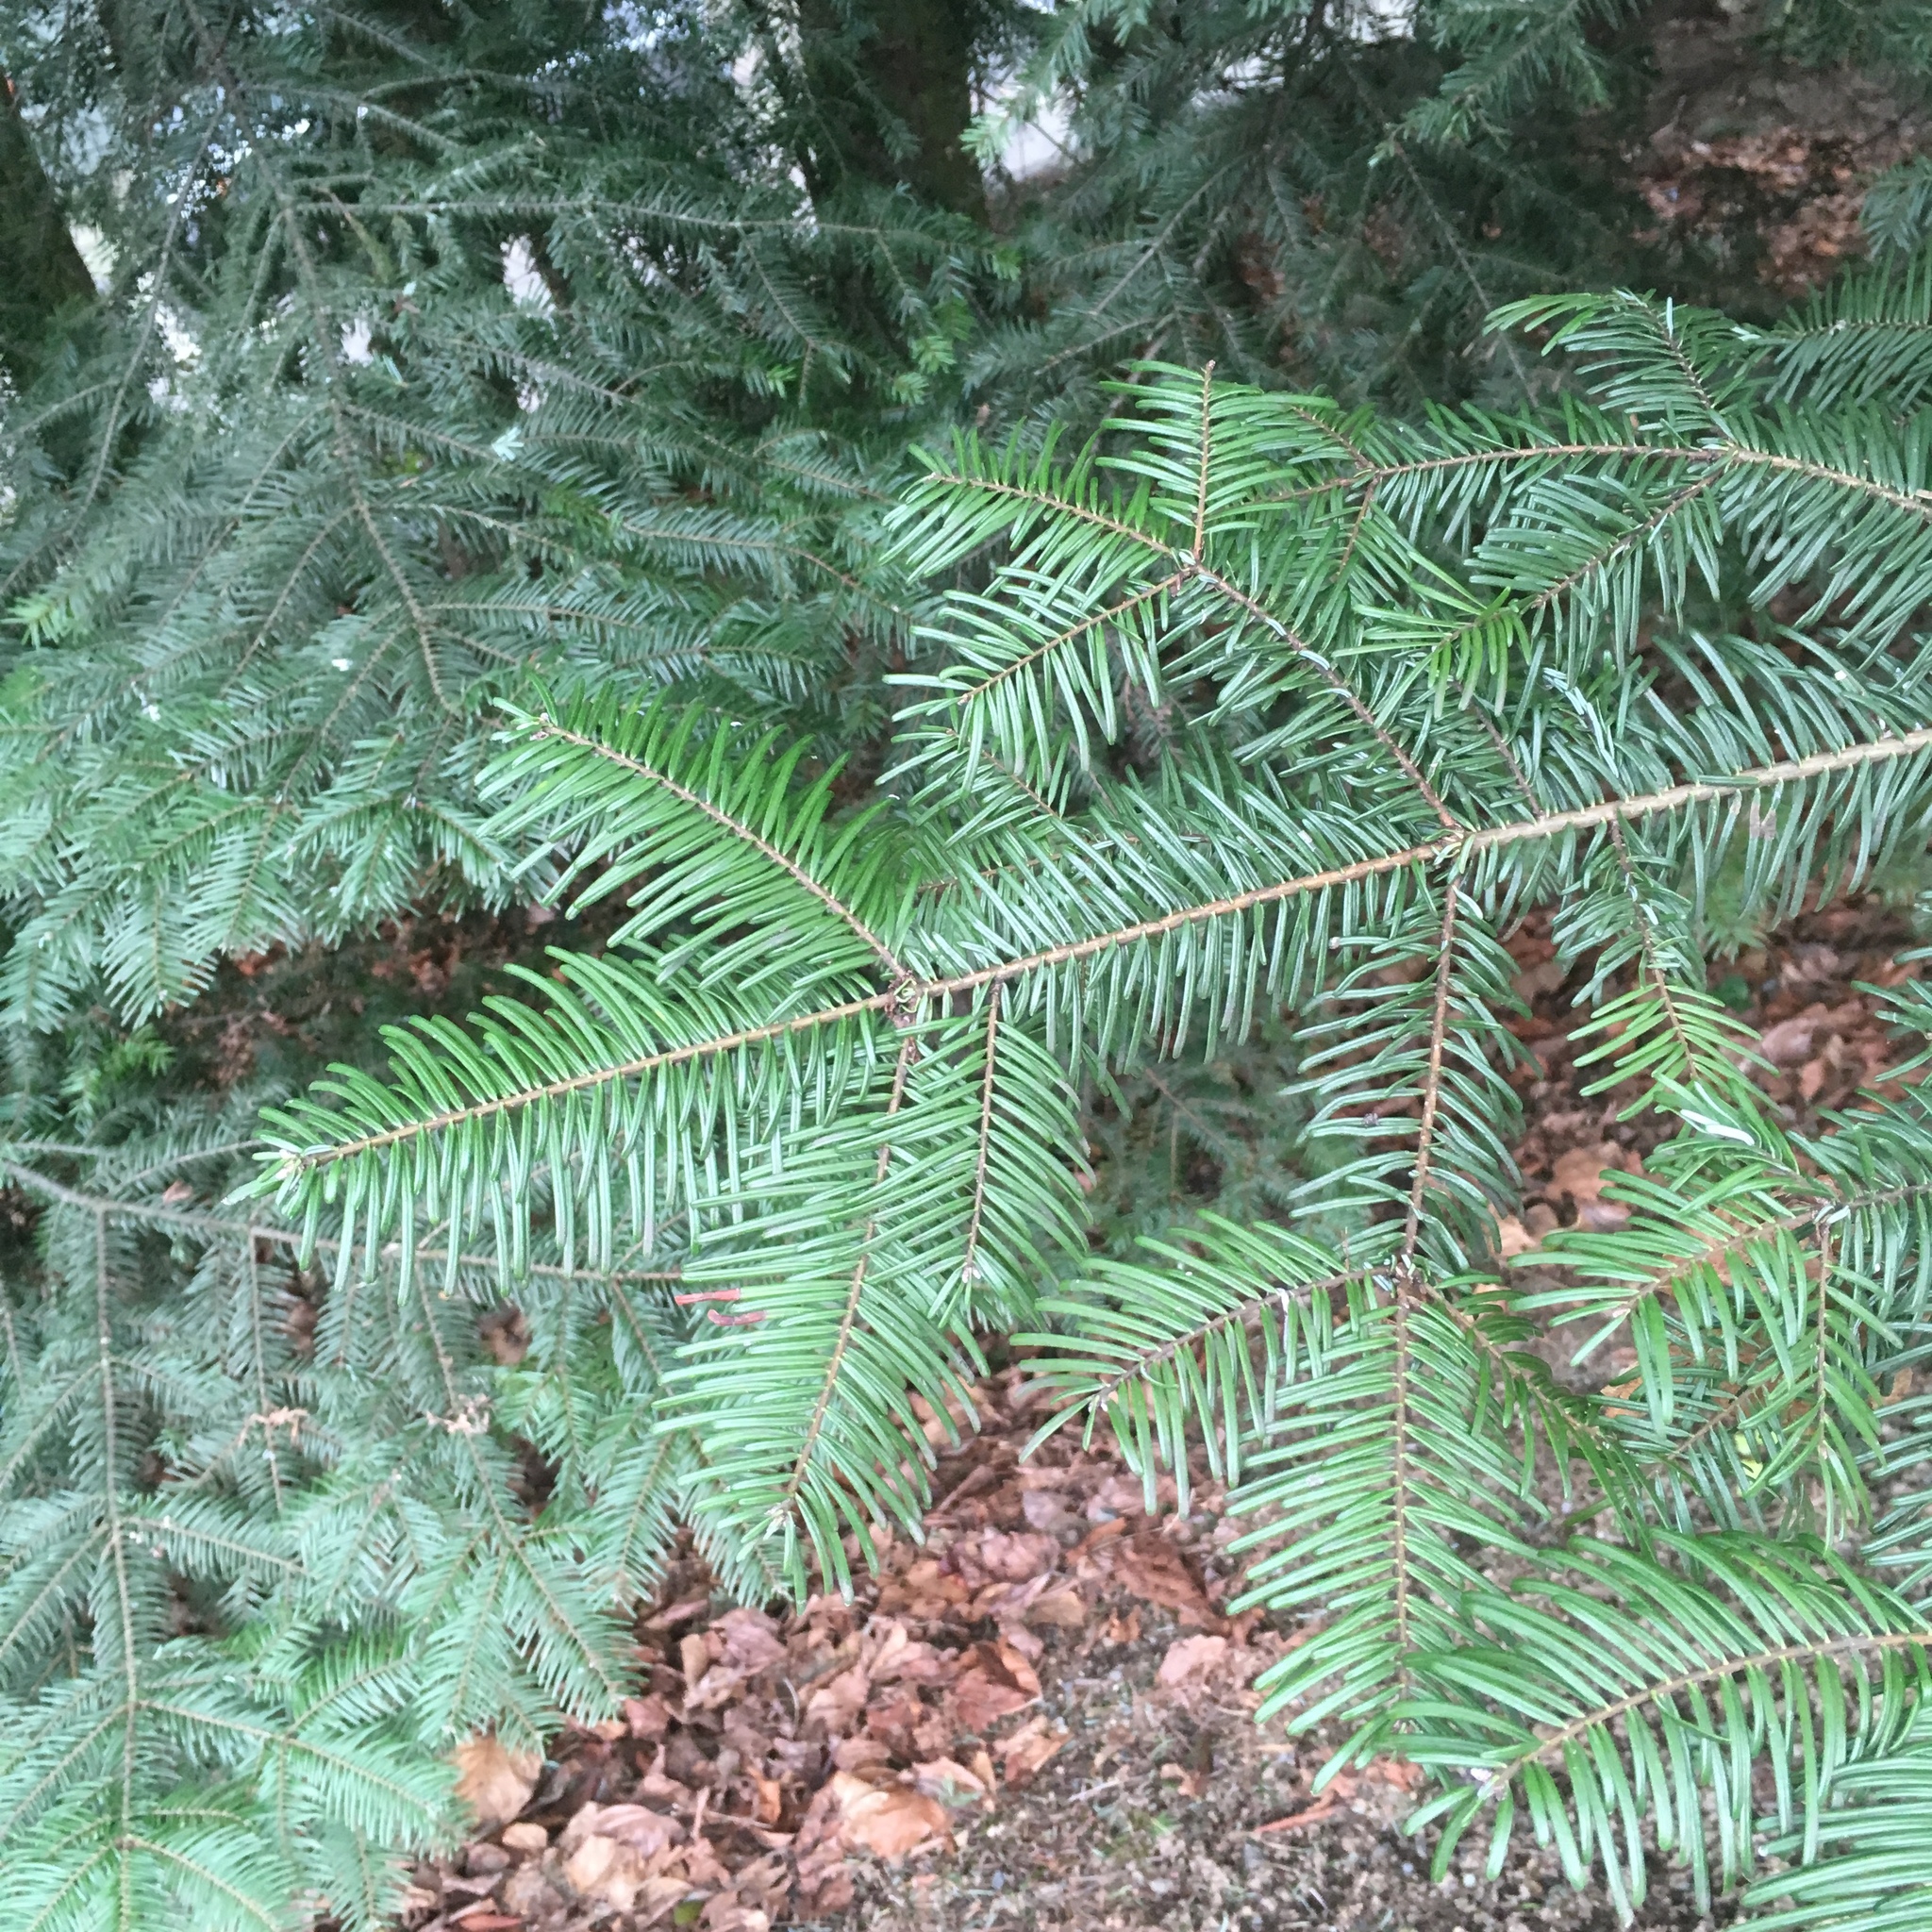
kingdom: Plantae
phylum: Tracheophyta
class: Pinopsida
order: Pinales
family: Pinaceae
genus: Abies
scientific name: Abies grandis
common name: Giant fir
